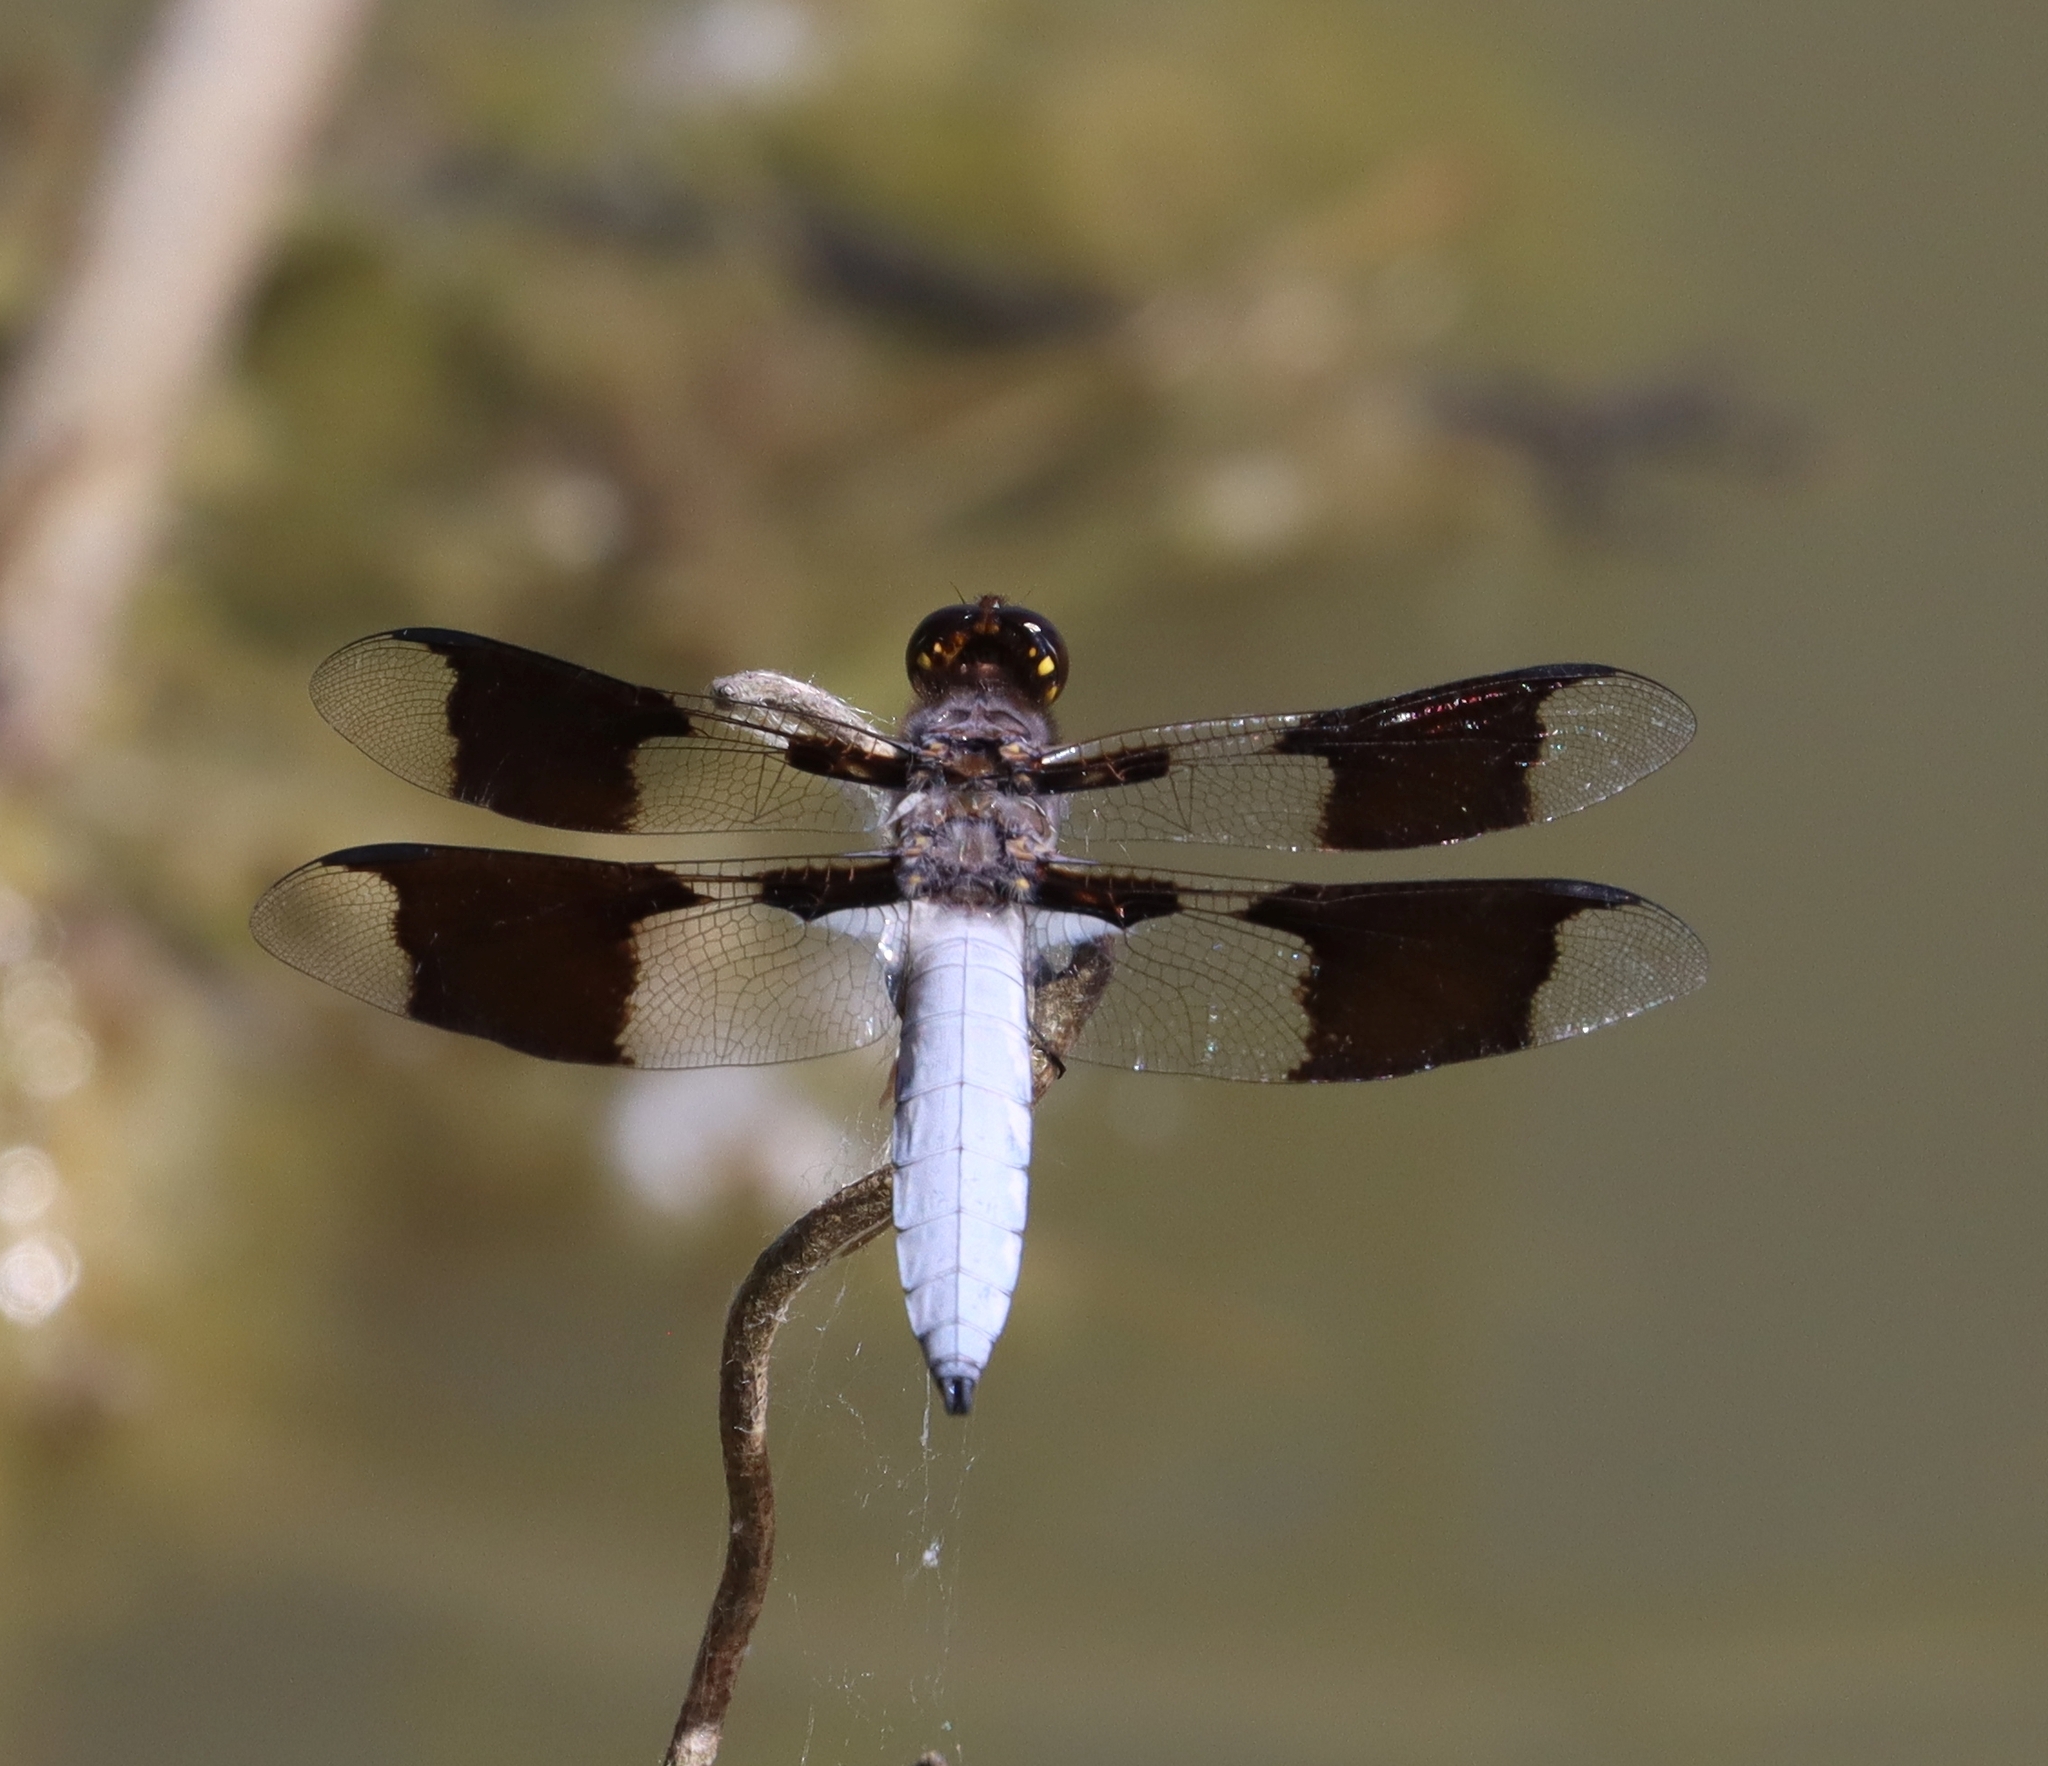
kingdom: Animalia
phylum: Arthropoda
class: Insecta
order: Odonata
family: Libellulidae
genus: Plathemis
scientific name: Plathemis lydia
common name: Common whitetail
